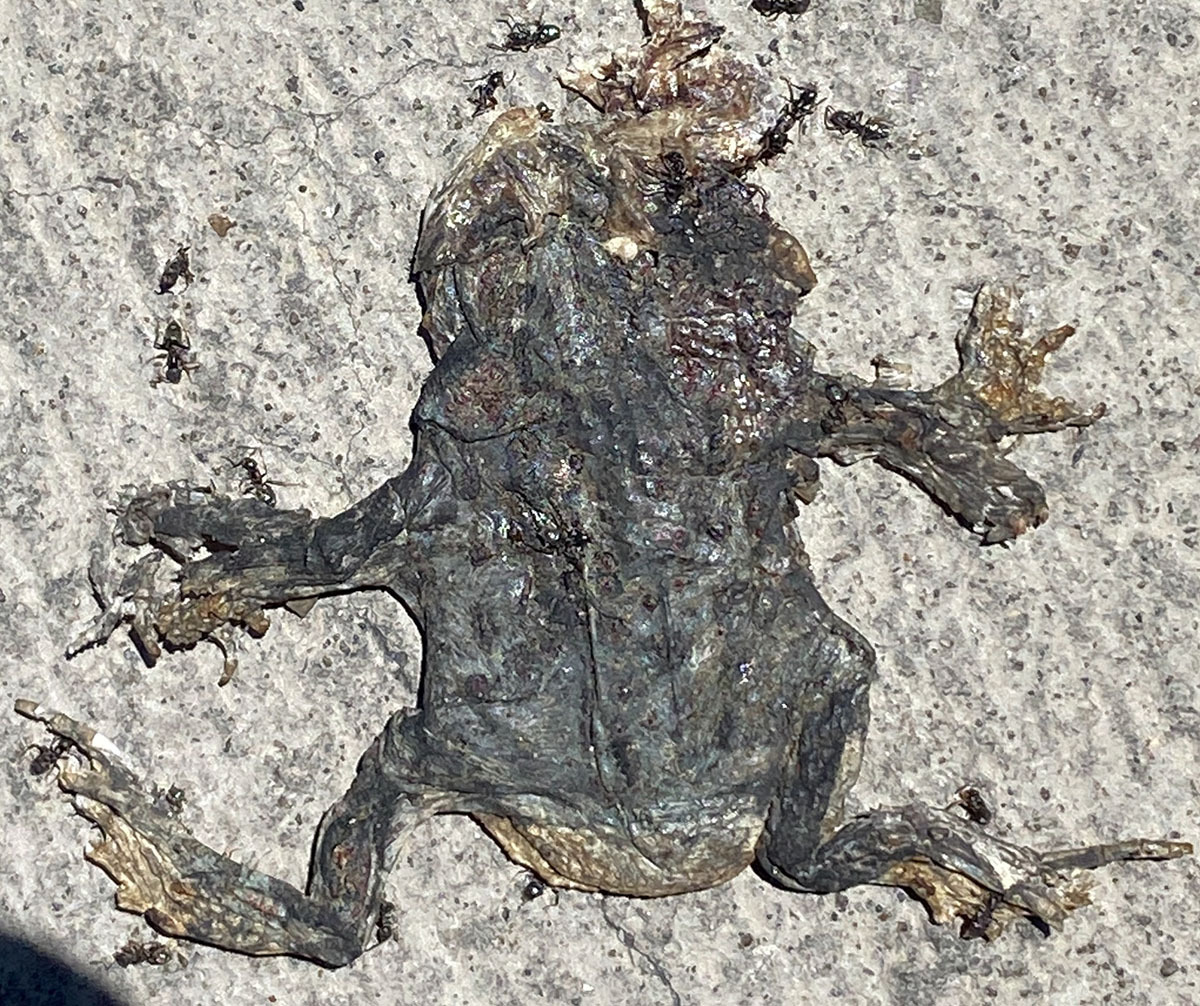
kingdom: Animalia
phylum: Chordata
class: Amphibia
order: Anura
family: Bufonidae
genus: Anaxyrus
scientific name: Anaxyrus boreas
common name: Western toad
